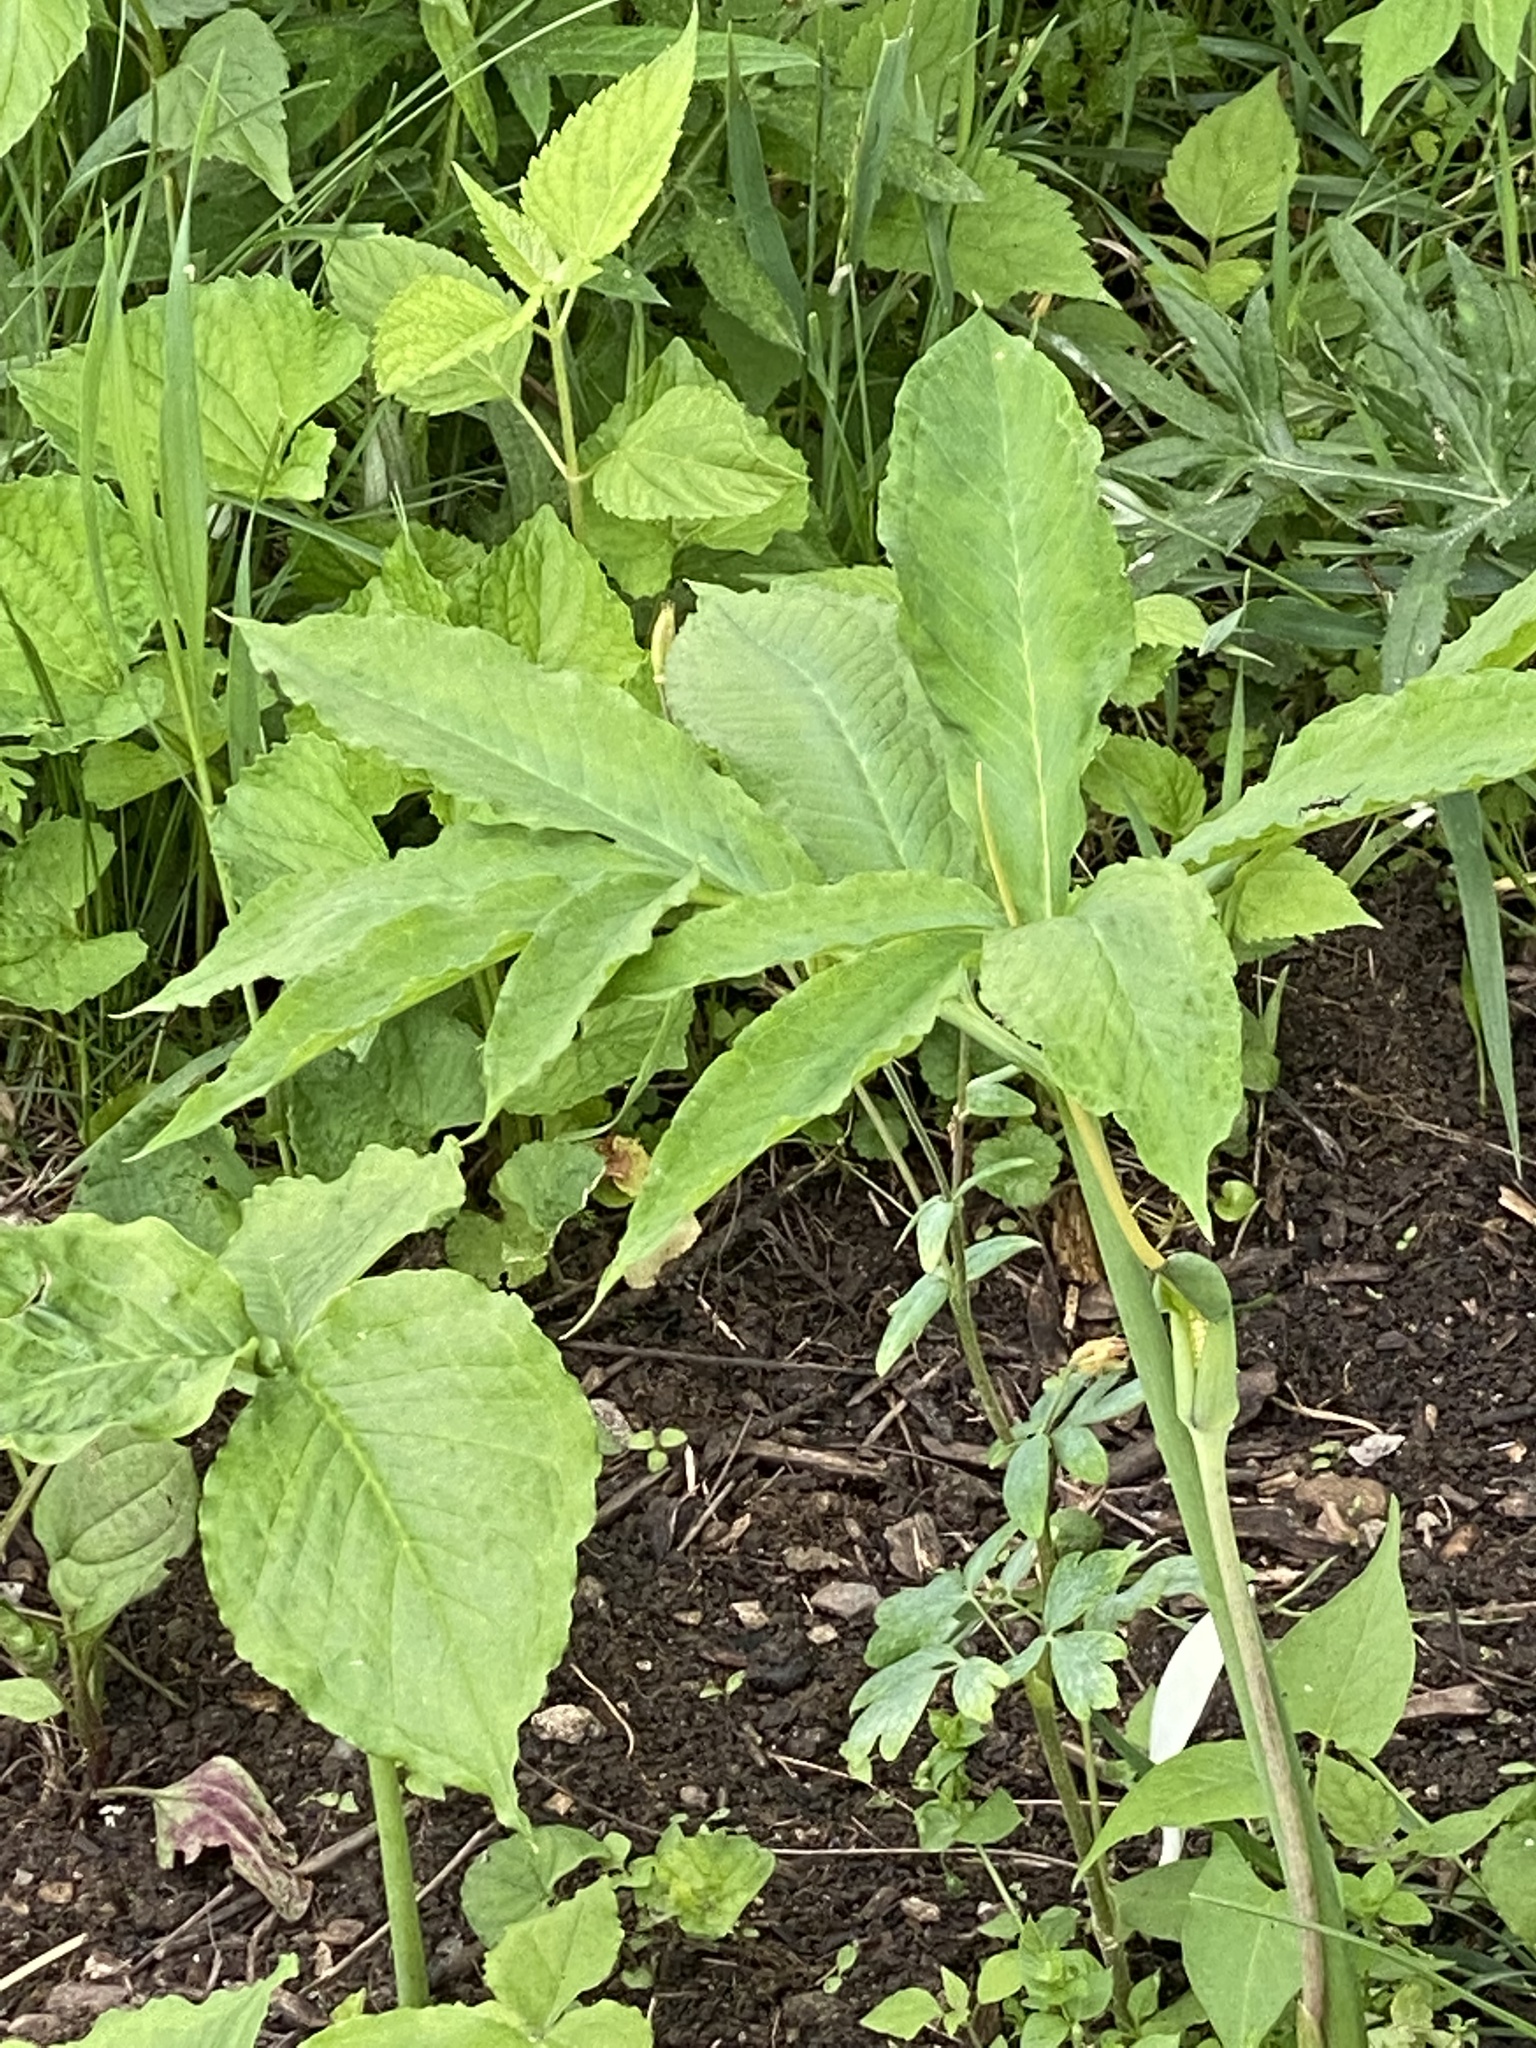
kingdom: Plantae
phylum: Tracheophyta
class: Liliopsida
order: Alismatales
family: Araceae
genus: Arisaema
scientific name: Arisaema dracontium
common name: Dragon-arum
